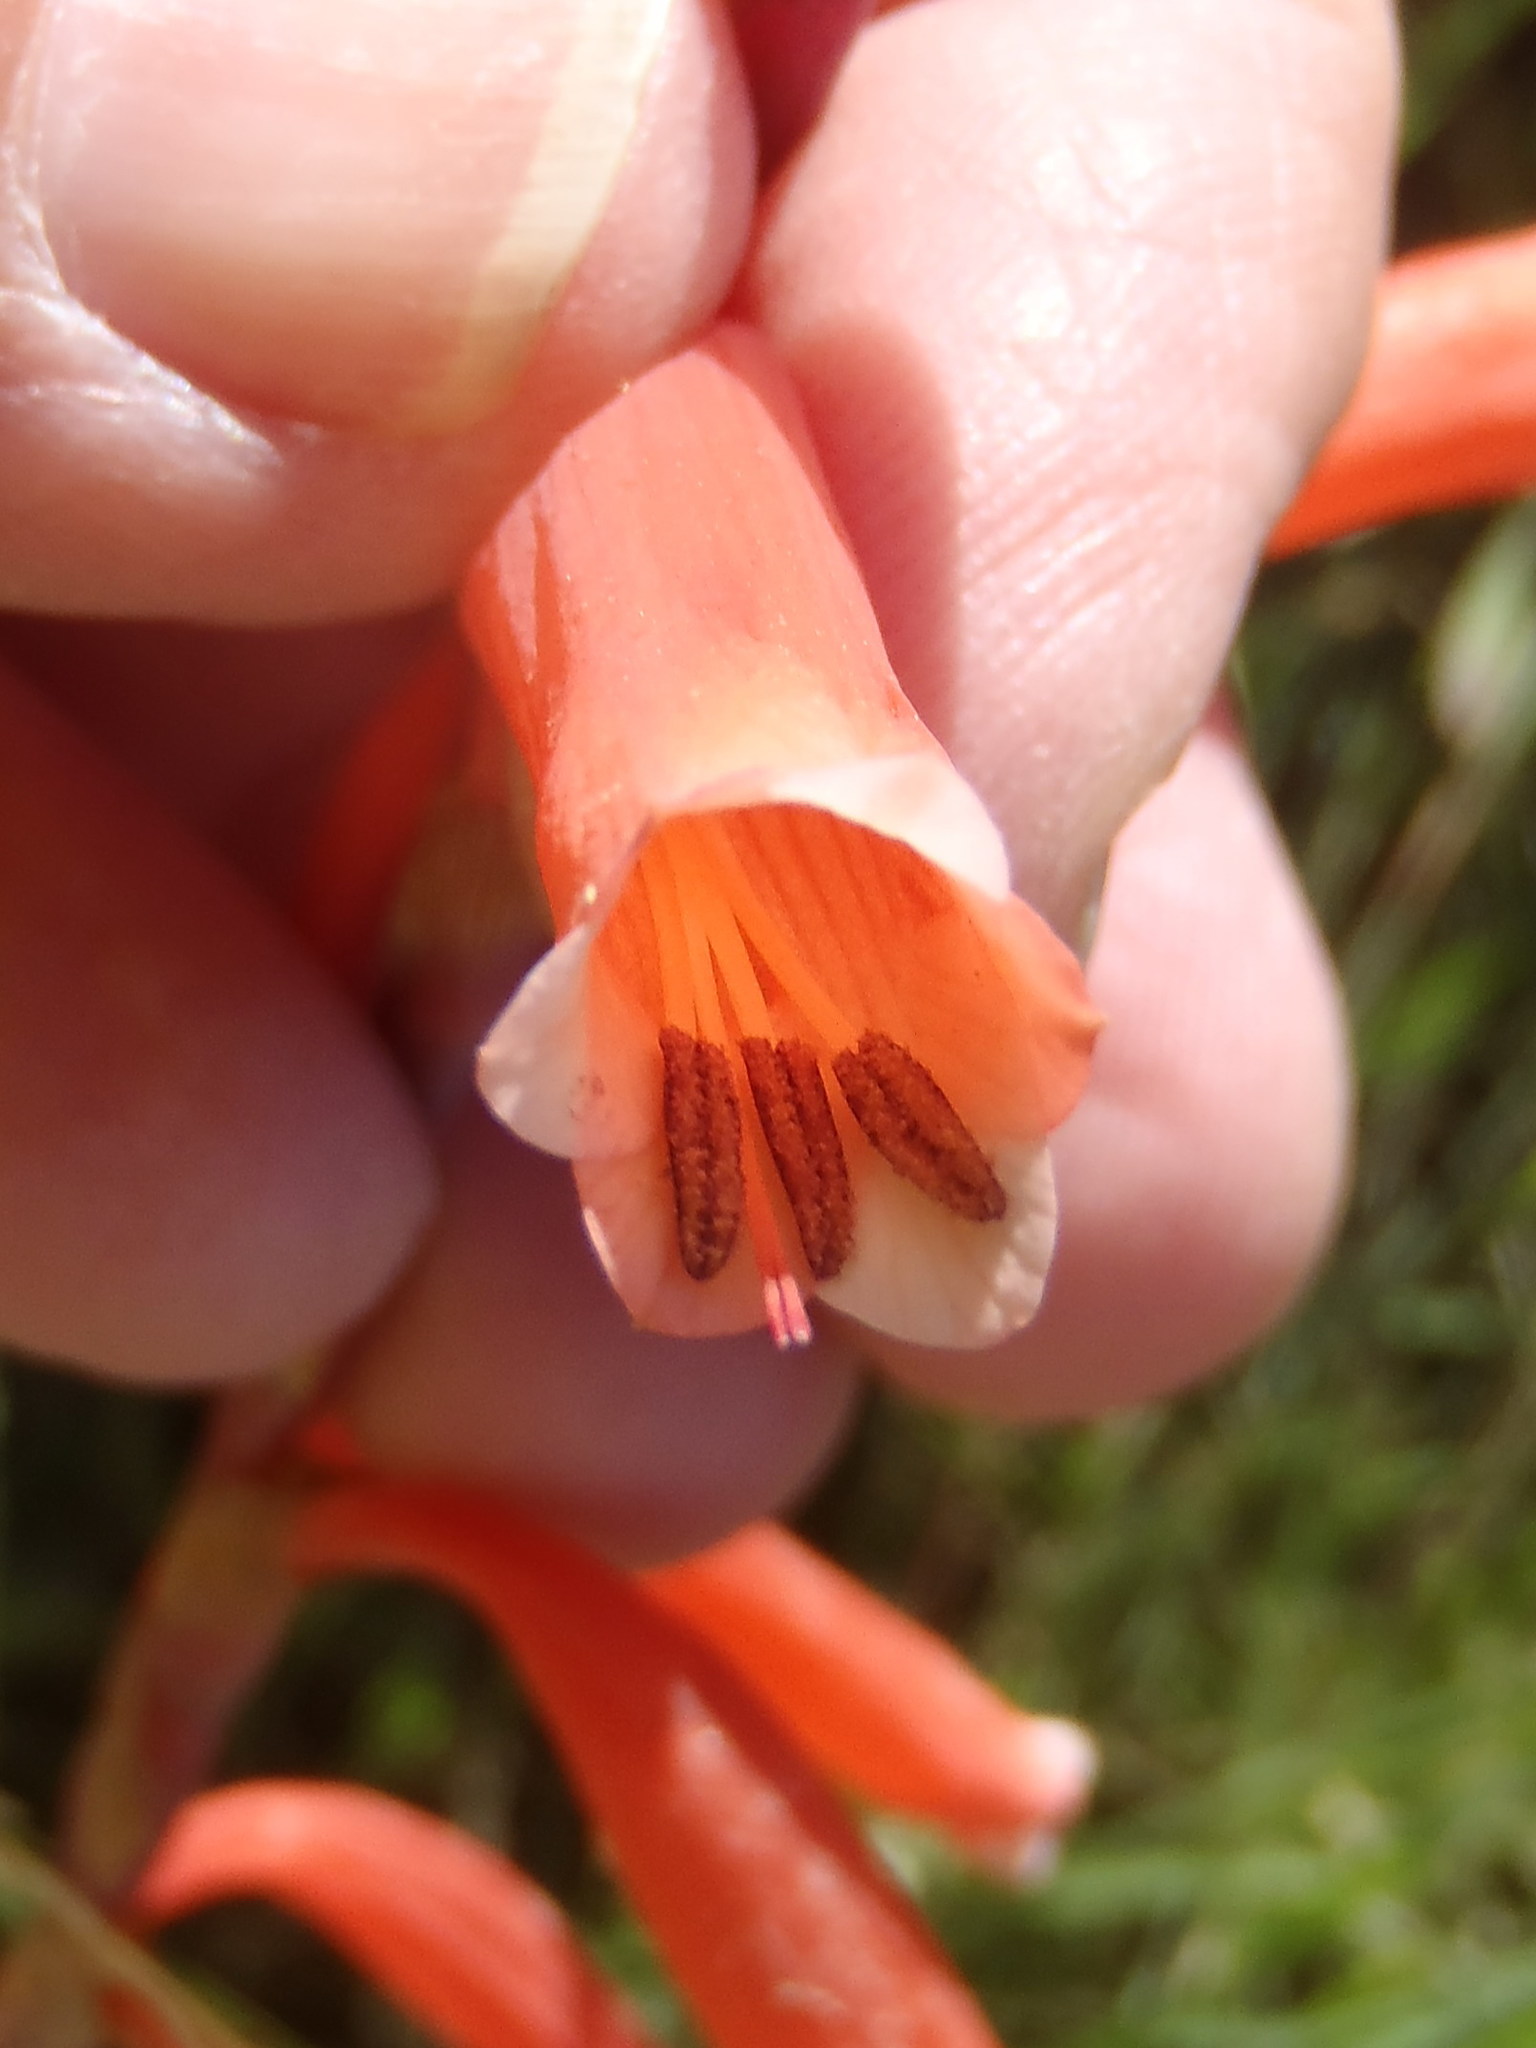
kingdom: Plantae
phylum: Tracheophyta
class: Liliopsida
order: Asparagales
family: Iridaceae
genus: Watsonia
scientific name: Watsonia aletroides
